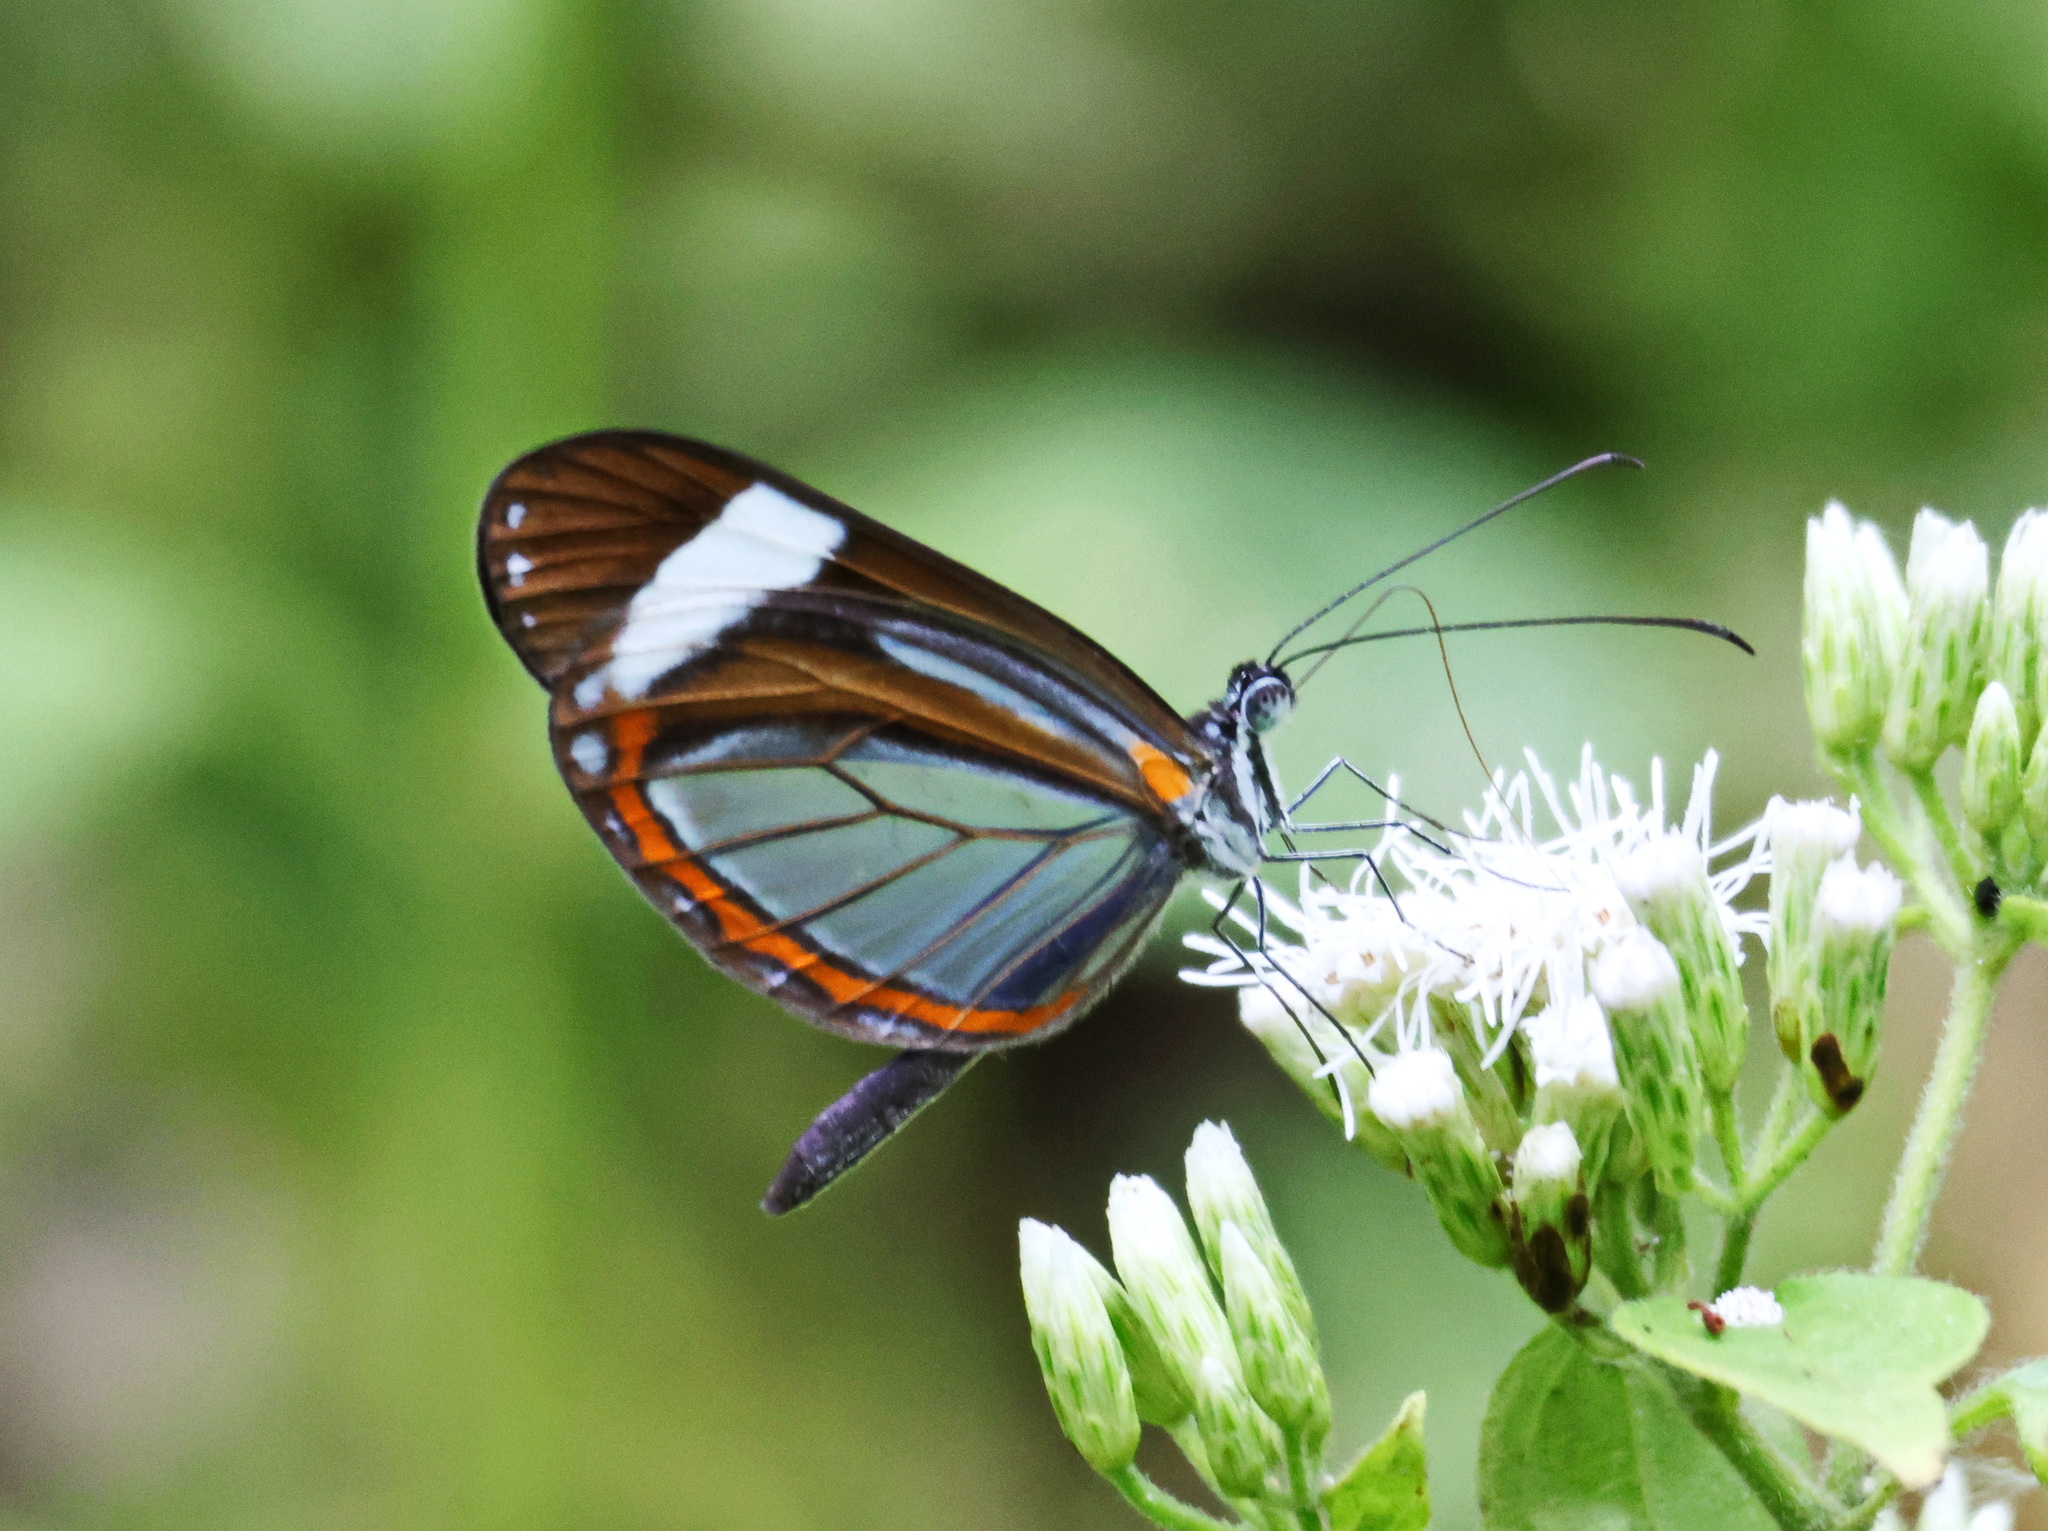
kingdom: Animalia
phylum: Arthropoda
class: Insecta
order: Lepidoptera
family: Pieridae
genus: Dismorphia
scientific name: Dismorphia theucharila
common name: Clearwing mimic-white
